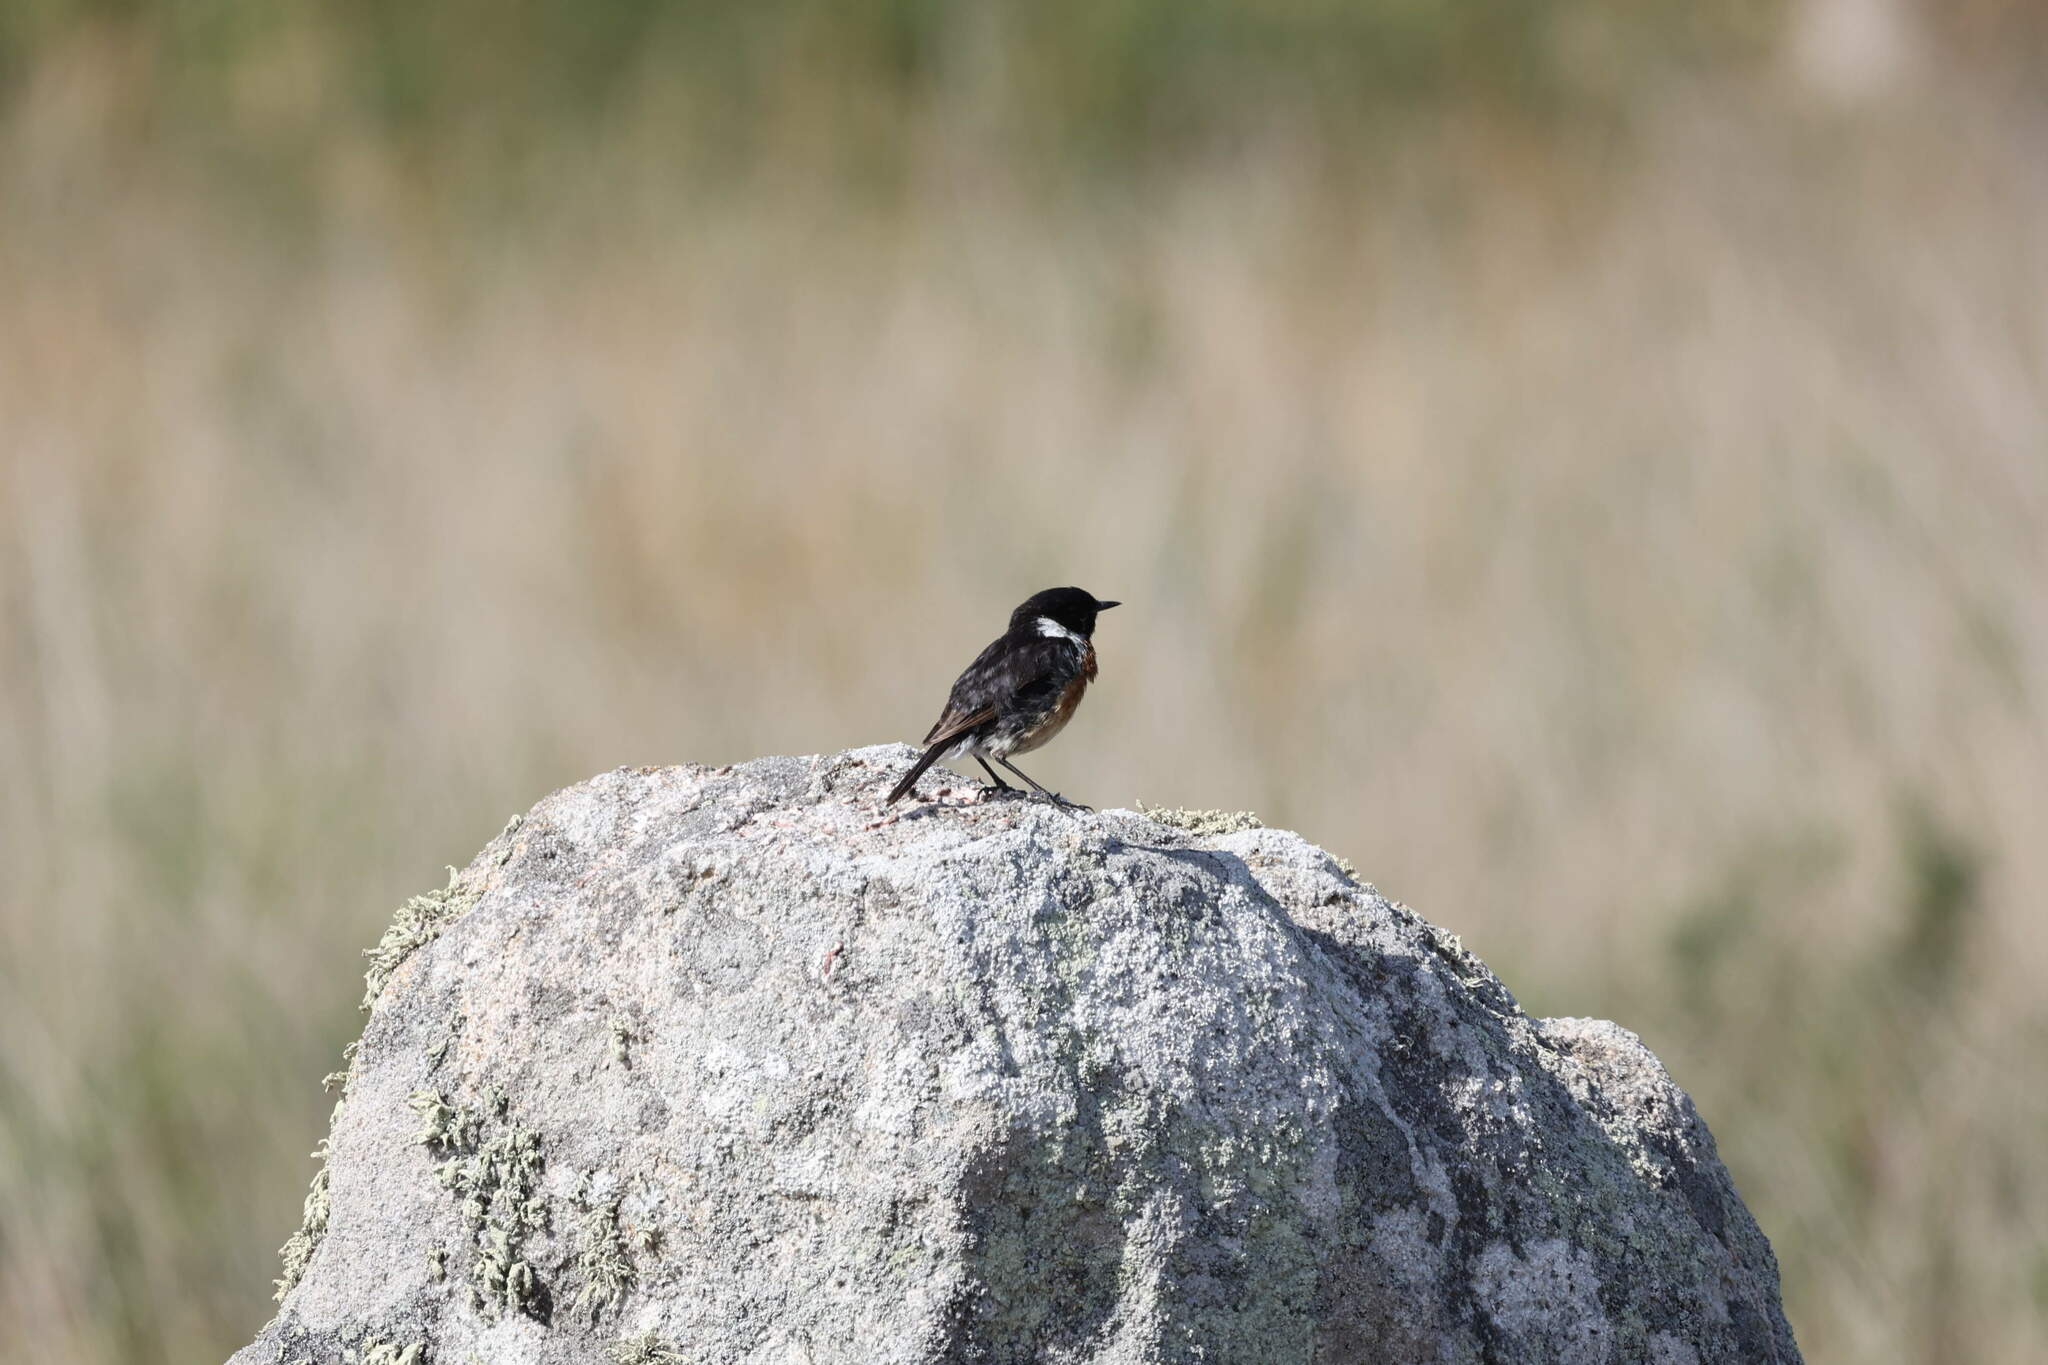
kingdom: Animalia
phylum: Chordata
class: Aves
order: Passeriformes
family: Muscicapidae
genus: Saxicola
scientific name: Saxicola rubicola
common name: European stonechat
